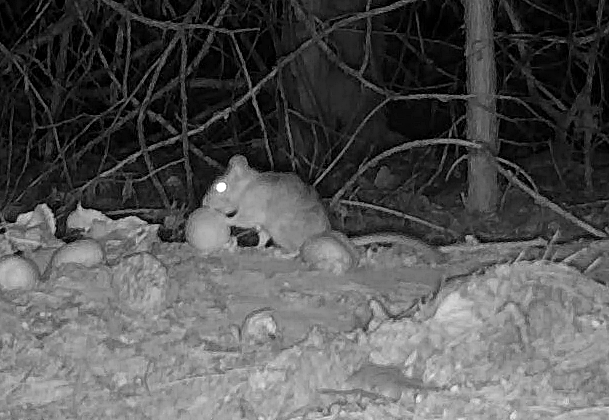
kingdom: Animalia
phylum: Chordata
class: Mammalia
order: Rodentia
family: Cricetidae
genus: Neotoma
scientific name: Neotoma cinerea
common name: Bushy-tailed woodrat
